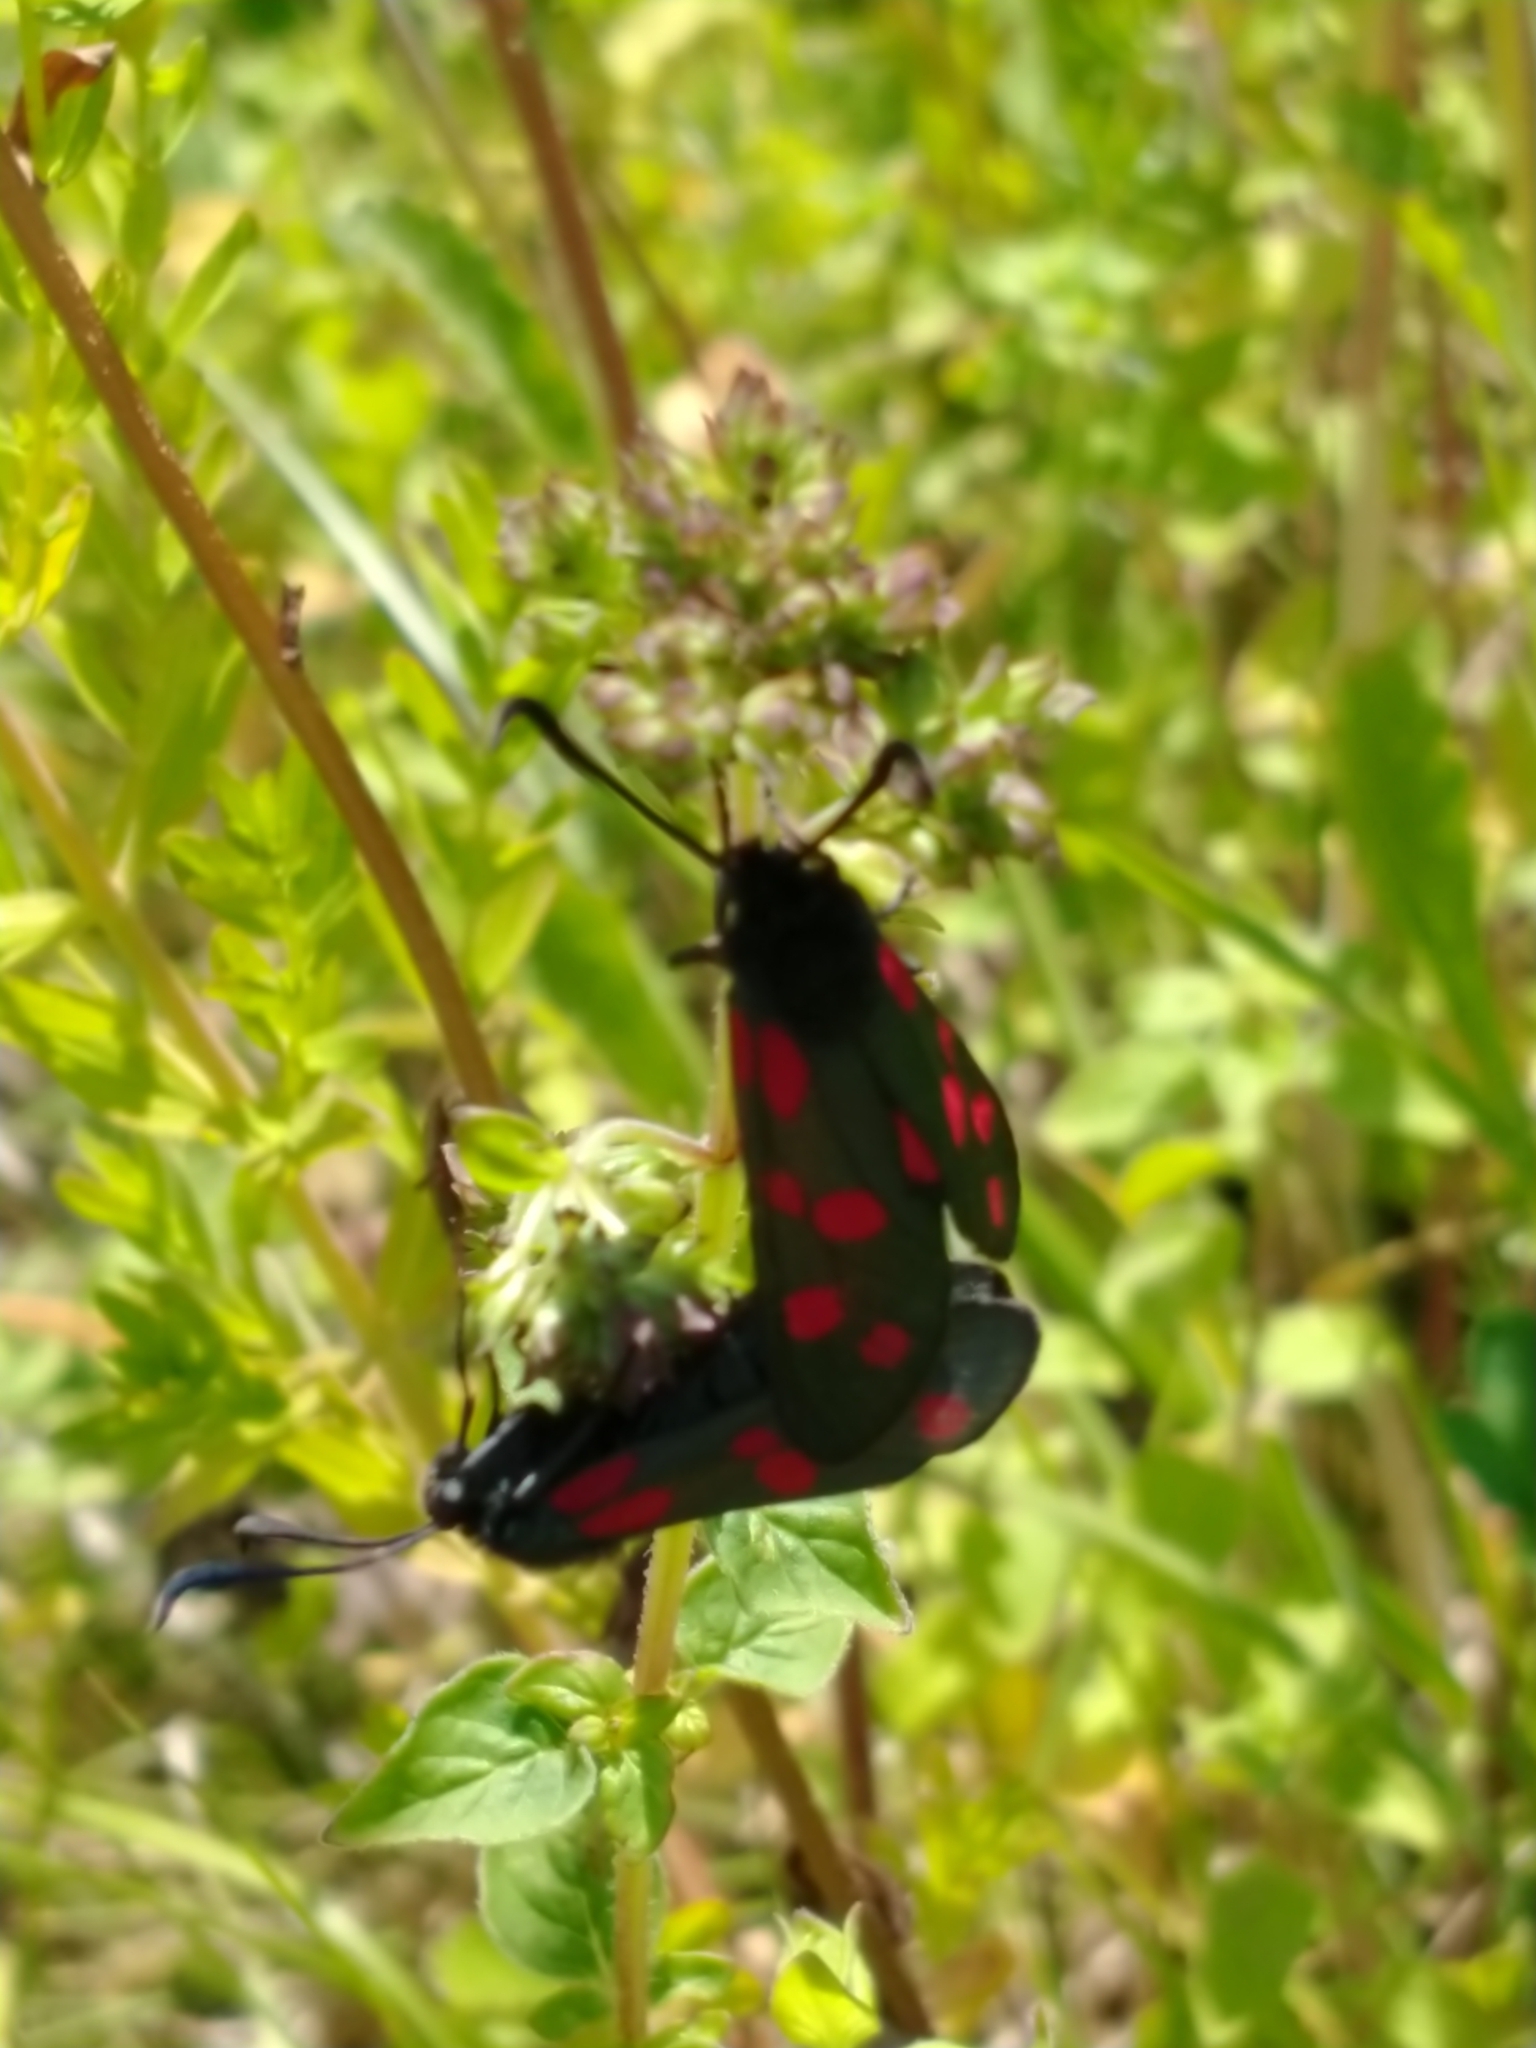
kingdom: Animalia
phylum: Arthropoda
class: Insecta
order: Lepidoptera
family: Zygaenidae
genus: Zygaena
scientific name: Zygaena filipendulae
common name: Six-spot burnet
